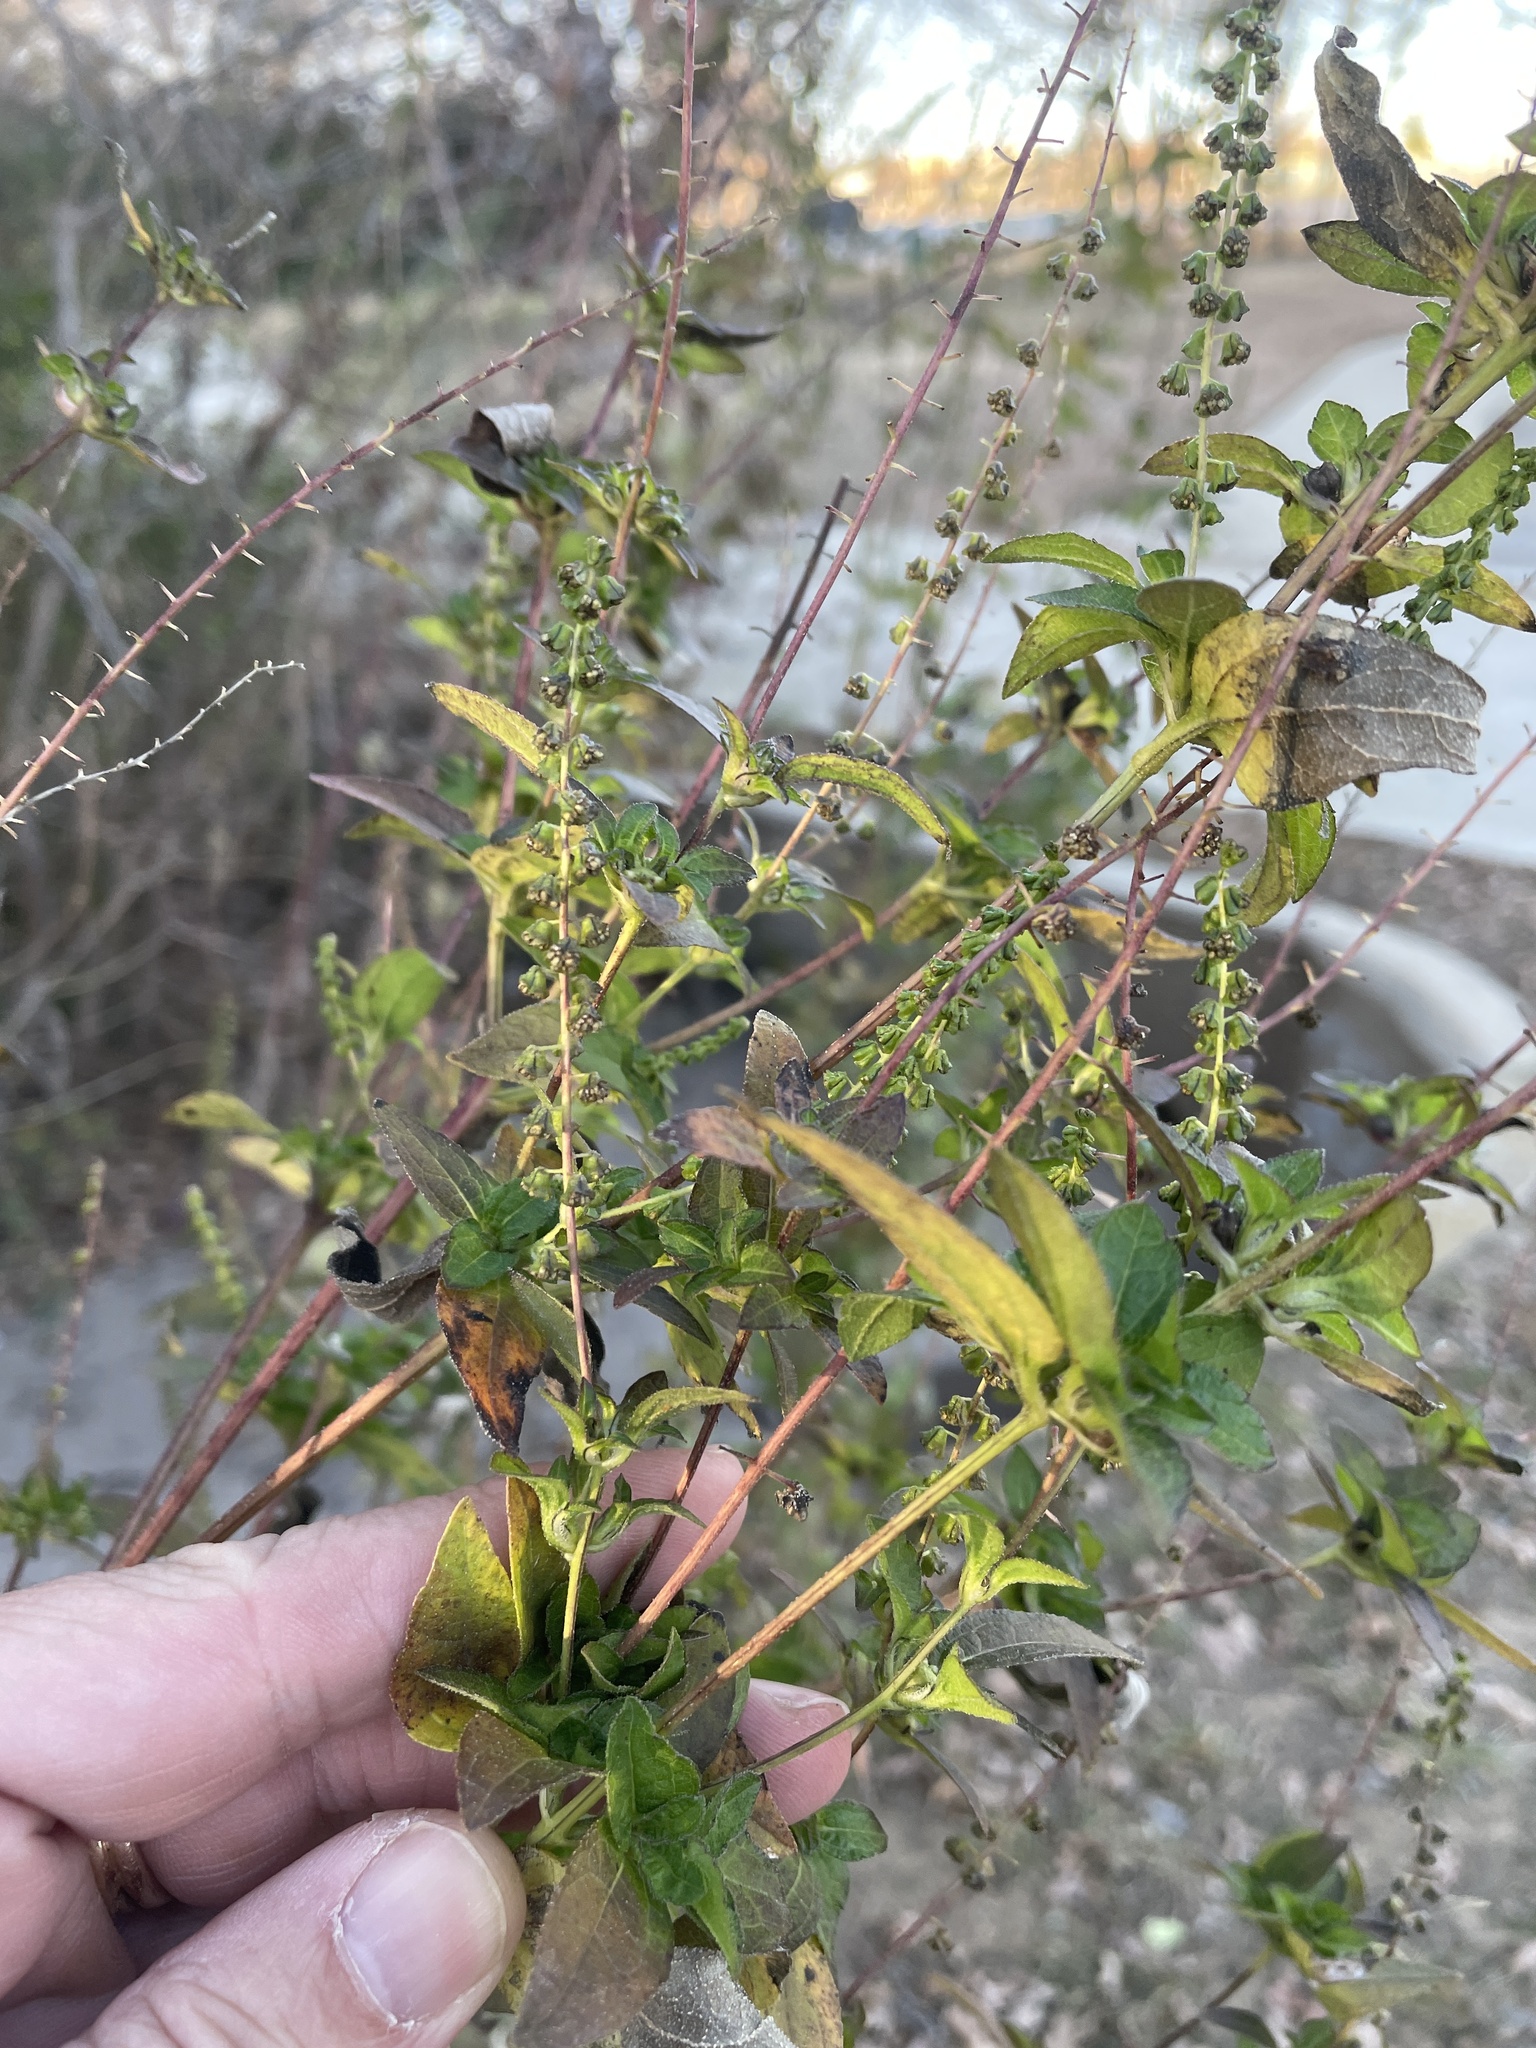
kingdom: Plantae
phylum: Tracheophyta
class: Magnoliopsida
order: Asterales
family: Asteraceae
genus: Ambrosia
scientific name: Ambrosia trifida
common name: Giant ragweed
